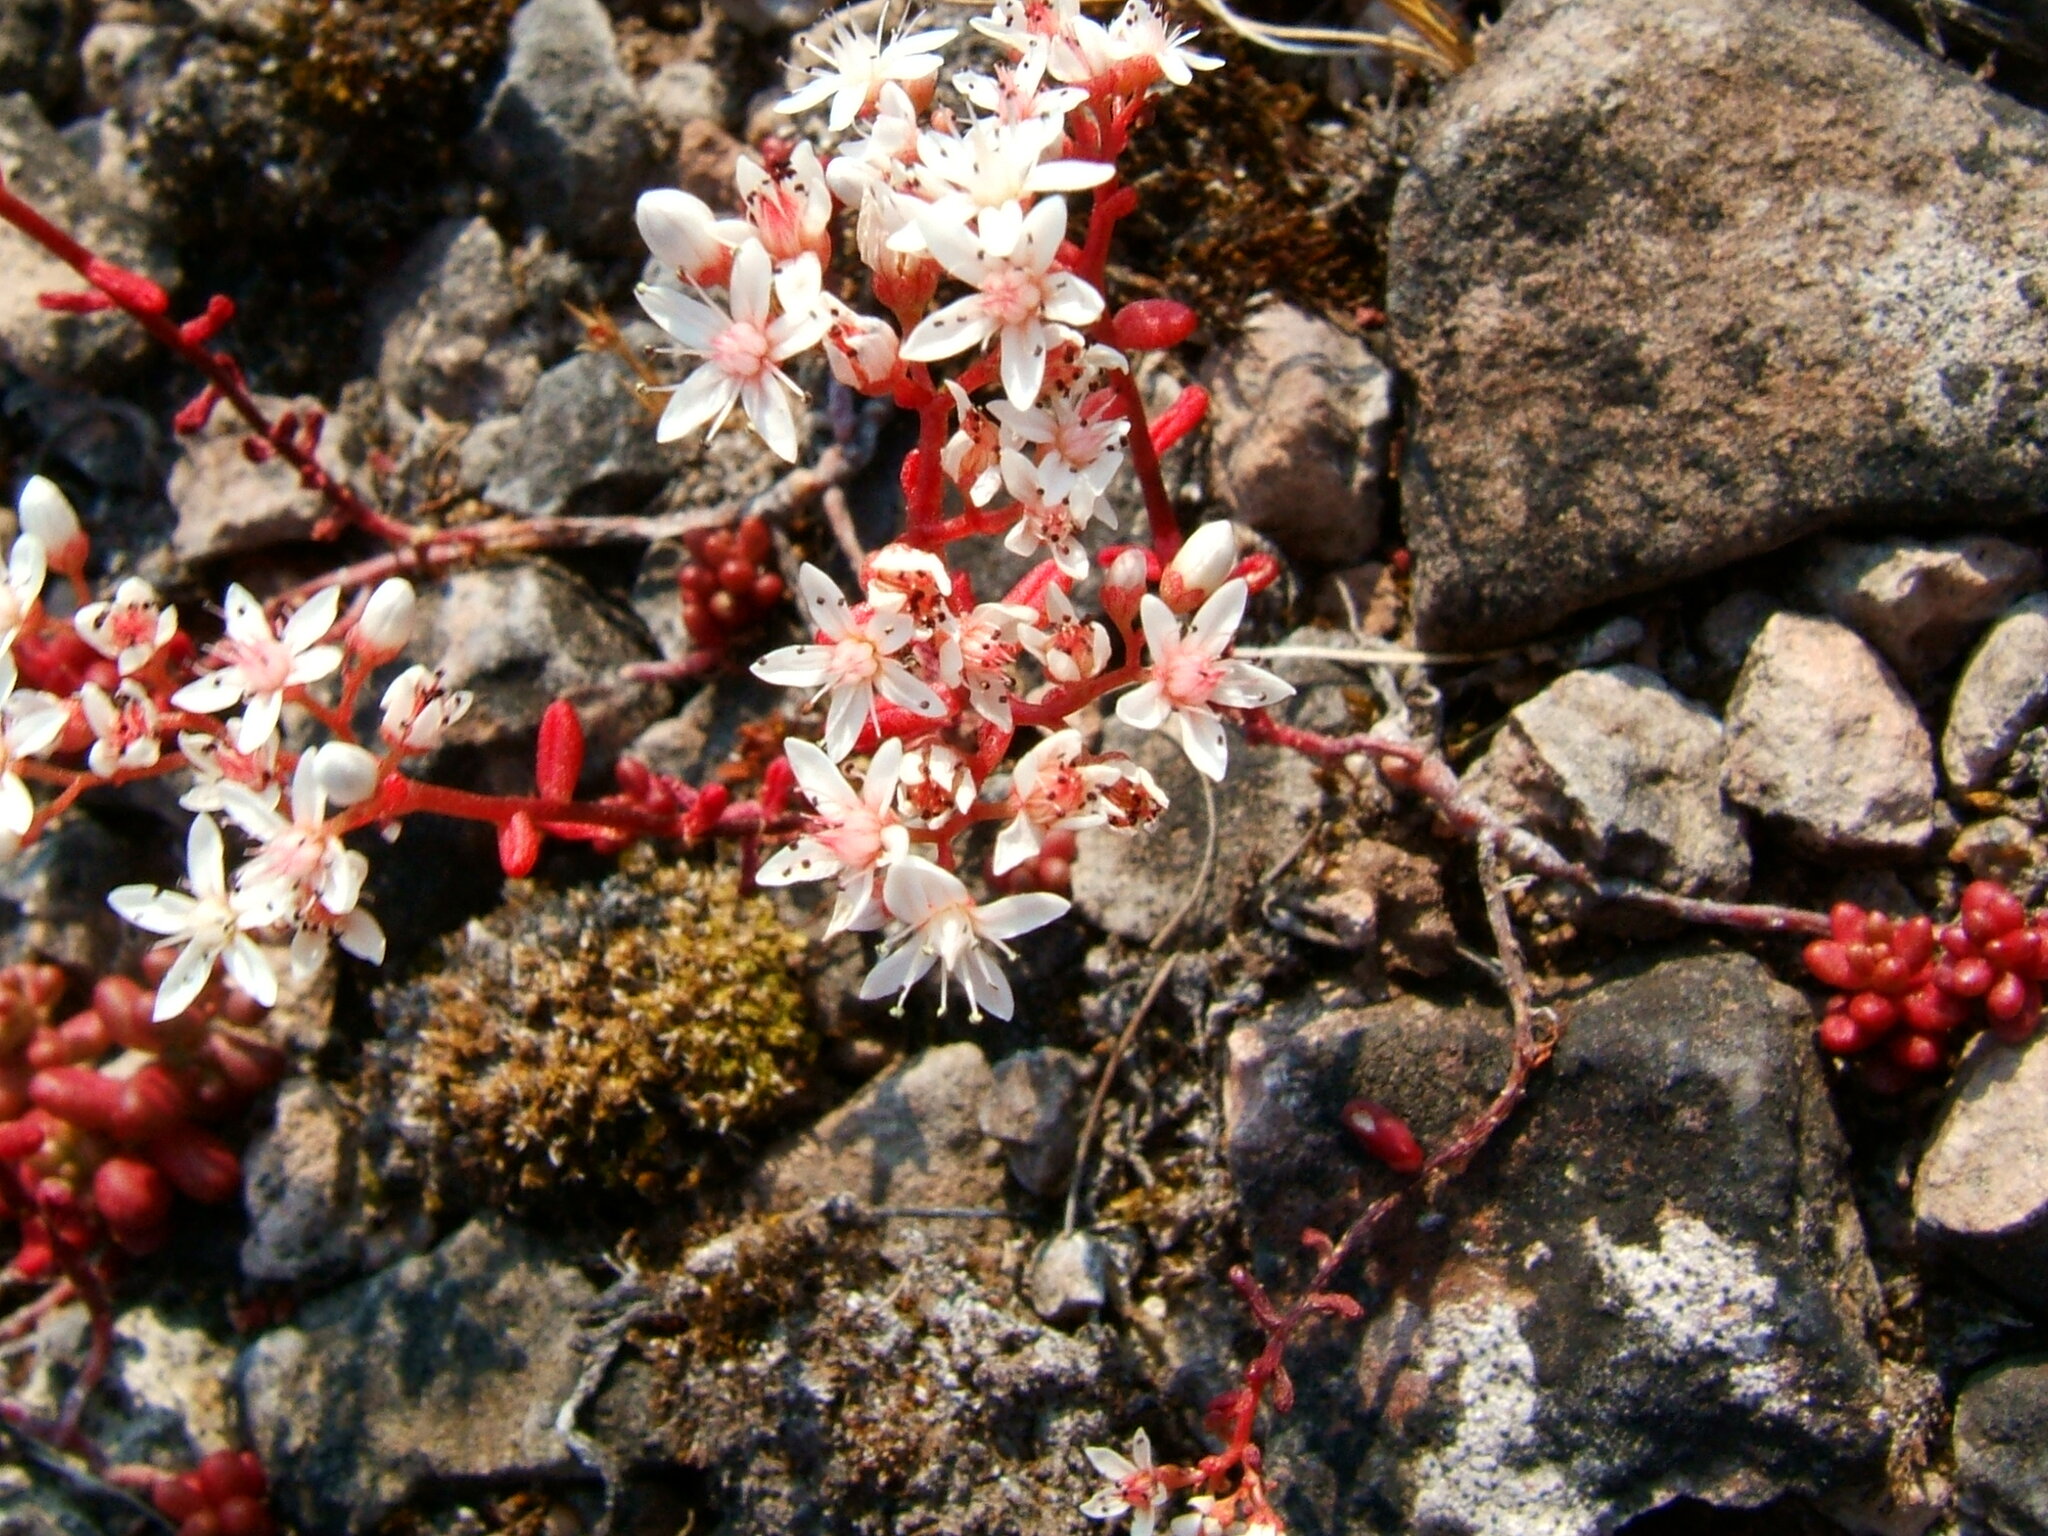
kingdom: Plantae
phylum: Tracheophyta
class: Magnoliopsida
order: Saxifragales
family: Crassulaceae
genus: Sedum
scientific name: Sedum album
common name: White stonecrop
